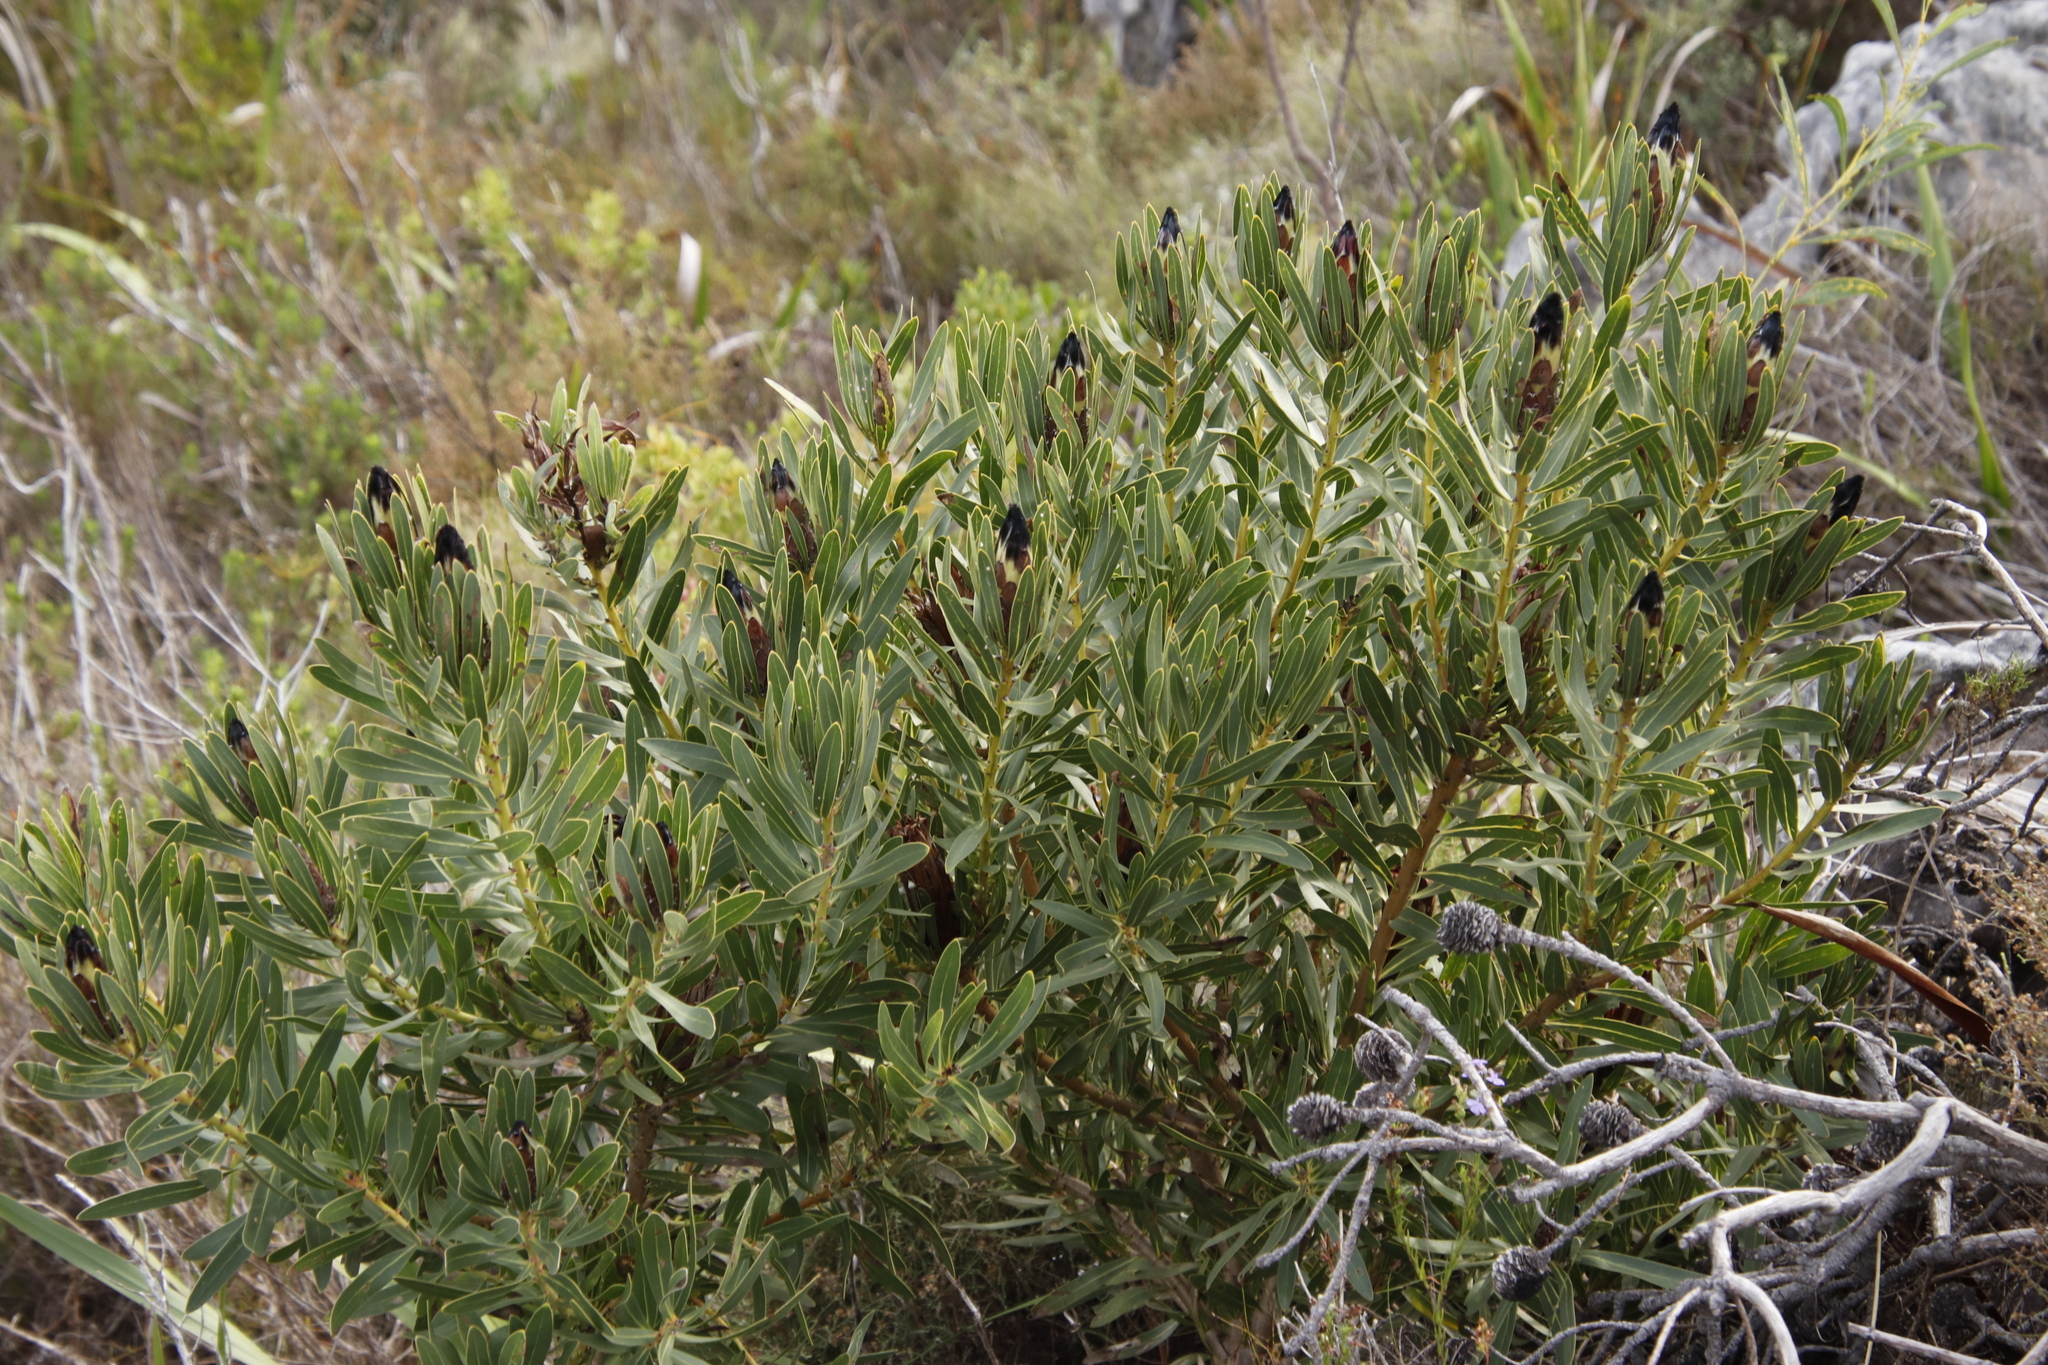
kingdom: Plantae
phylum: Tracheophyta
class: Magnoliopsida
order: Proteales
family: Proteaceae
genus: Protea
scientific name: Protea lepidocarpodendron
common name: Black-bearded protea
